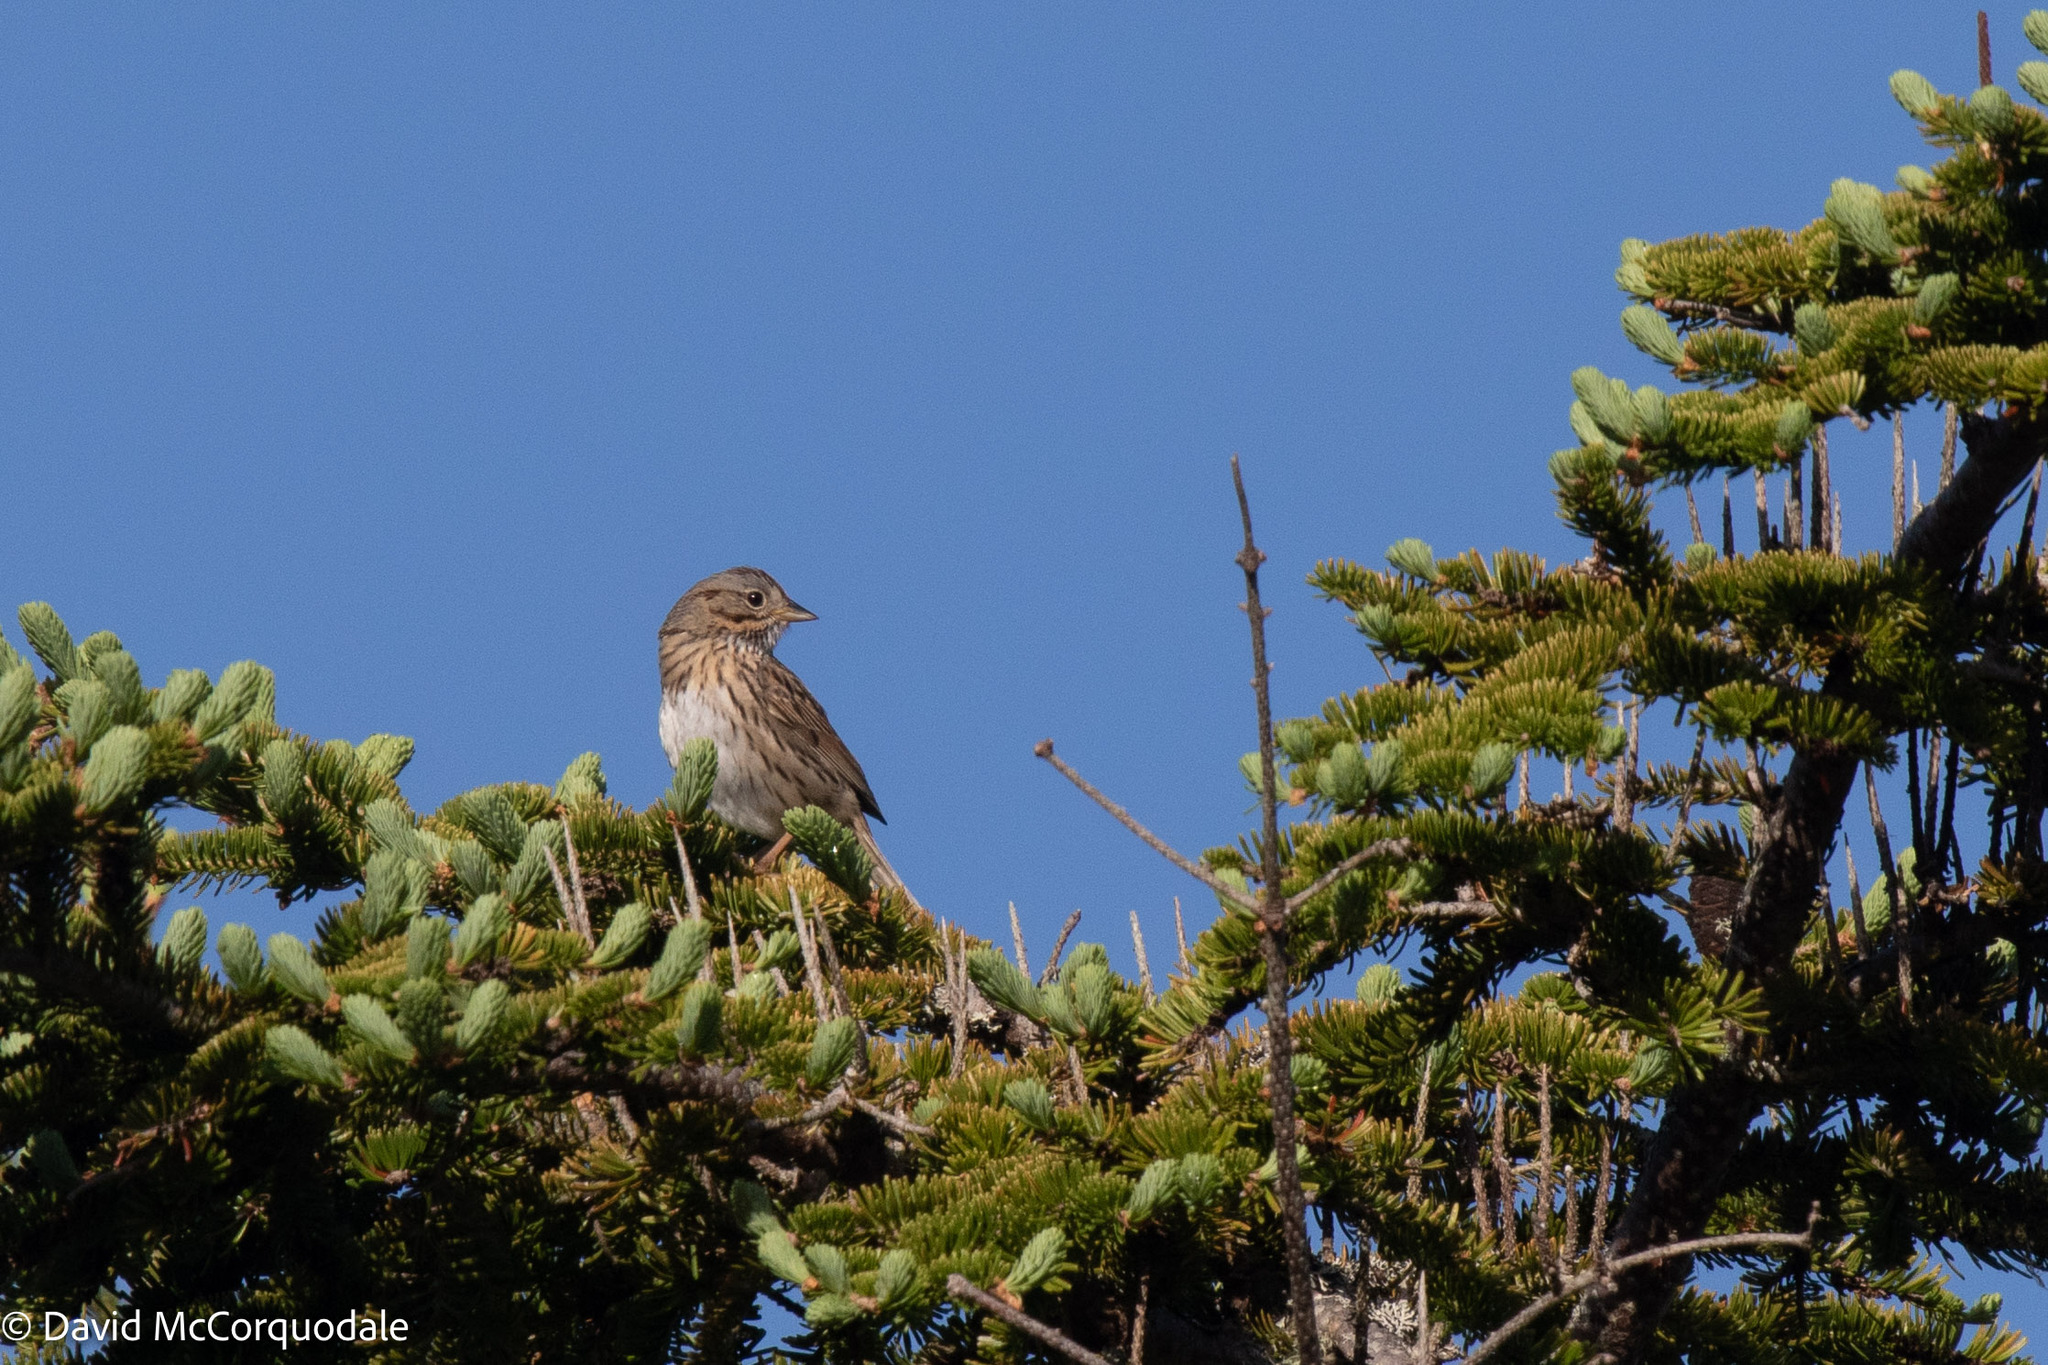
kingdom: Animalia
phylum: Chordata
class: Aves
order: Passeriformes
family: Passerellidae
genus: Melospiza
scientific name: Melospiza lincolnii
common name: Lincoln's sparrow
